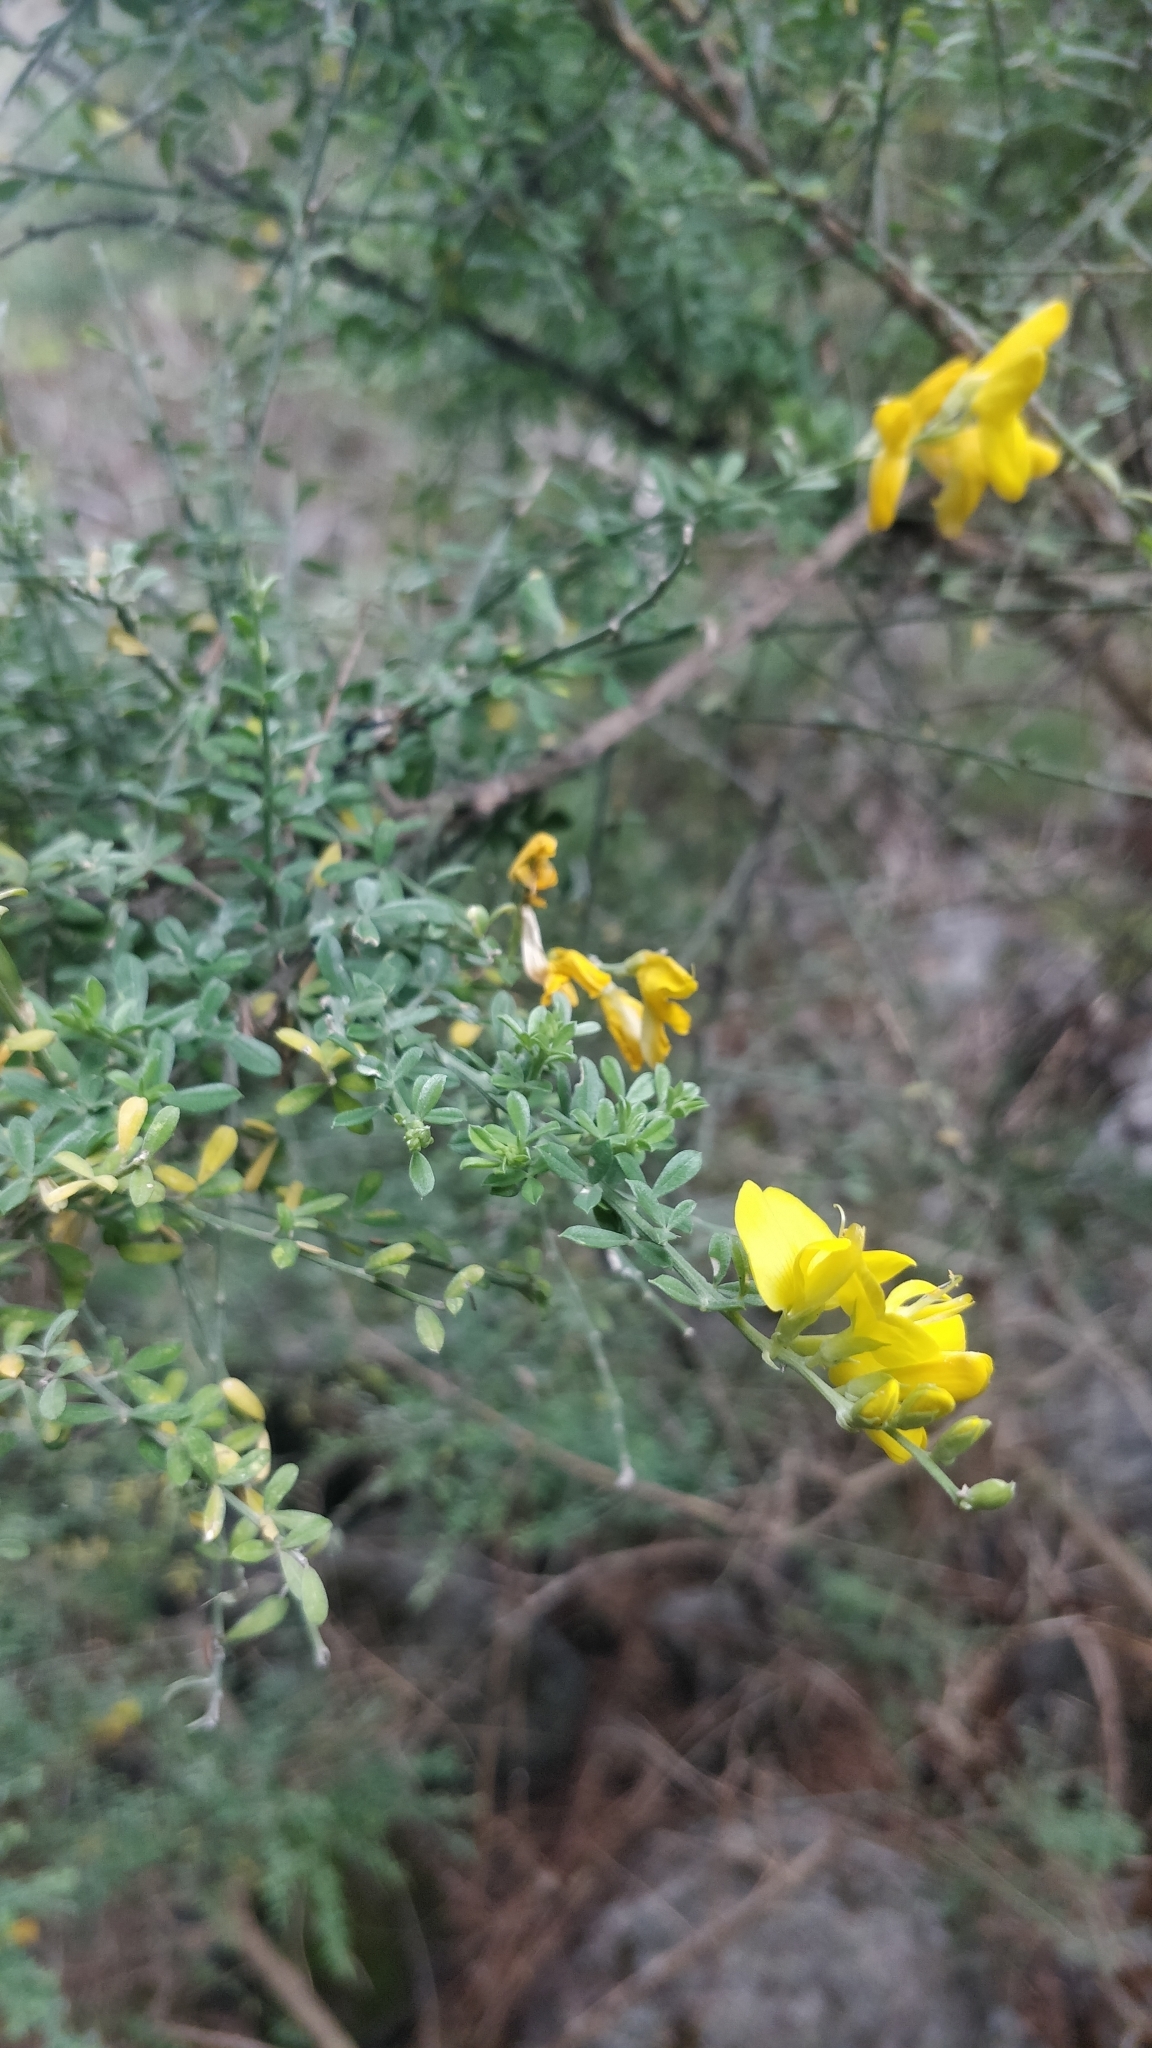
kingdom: Plantae
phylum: Tracheophyta
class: Magnoliopsida
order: Fabales
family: Fabaceae
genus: Cytisus
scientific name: Cytisus osyrioides
